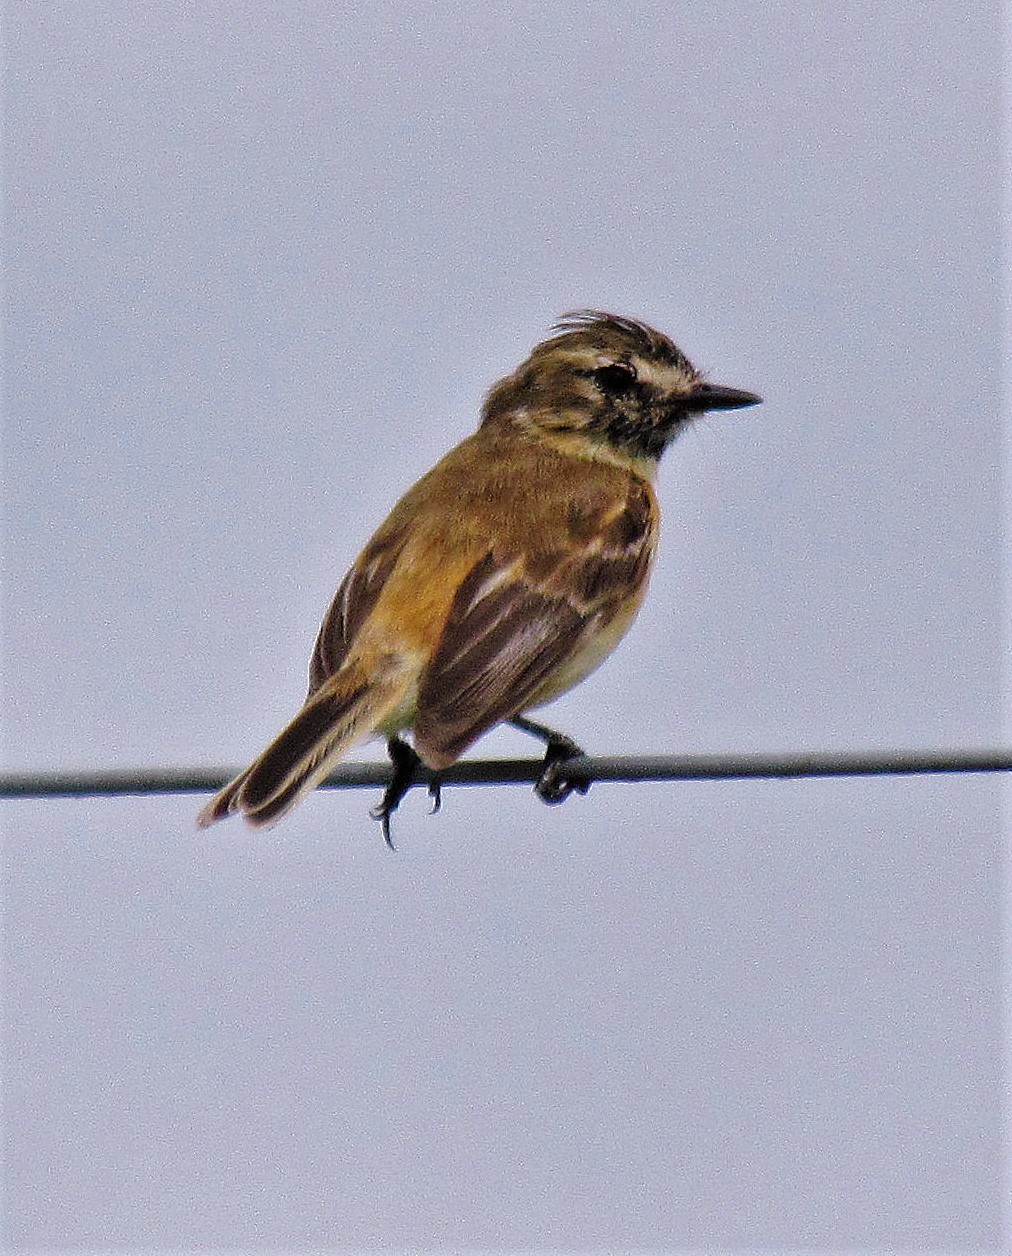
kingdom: Animalia
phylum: Chordata
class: Aves
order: Passeriformes
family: Tyrannidae
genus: Polystictus
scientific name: Polystictus pectoralis
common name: Bearded tachuri
